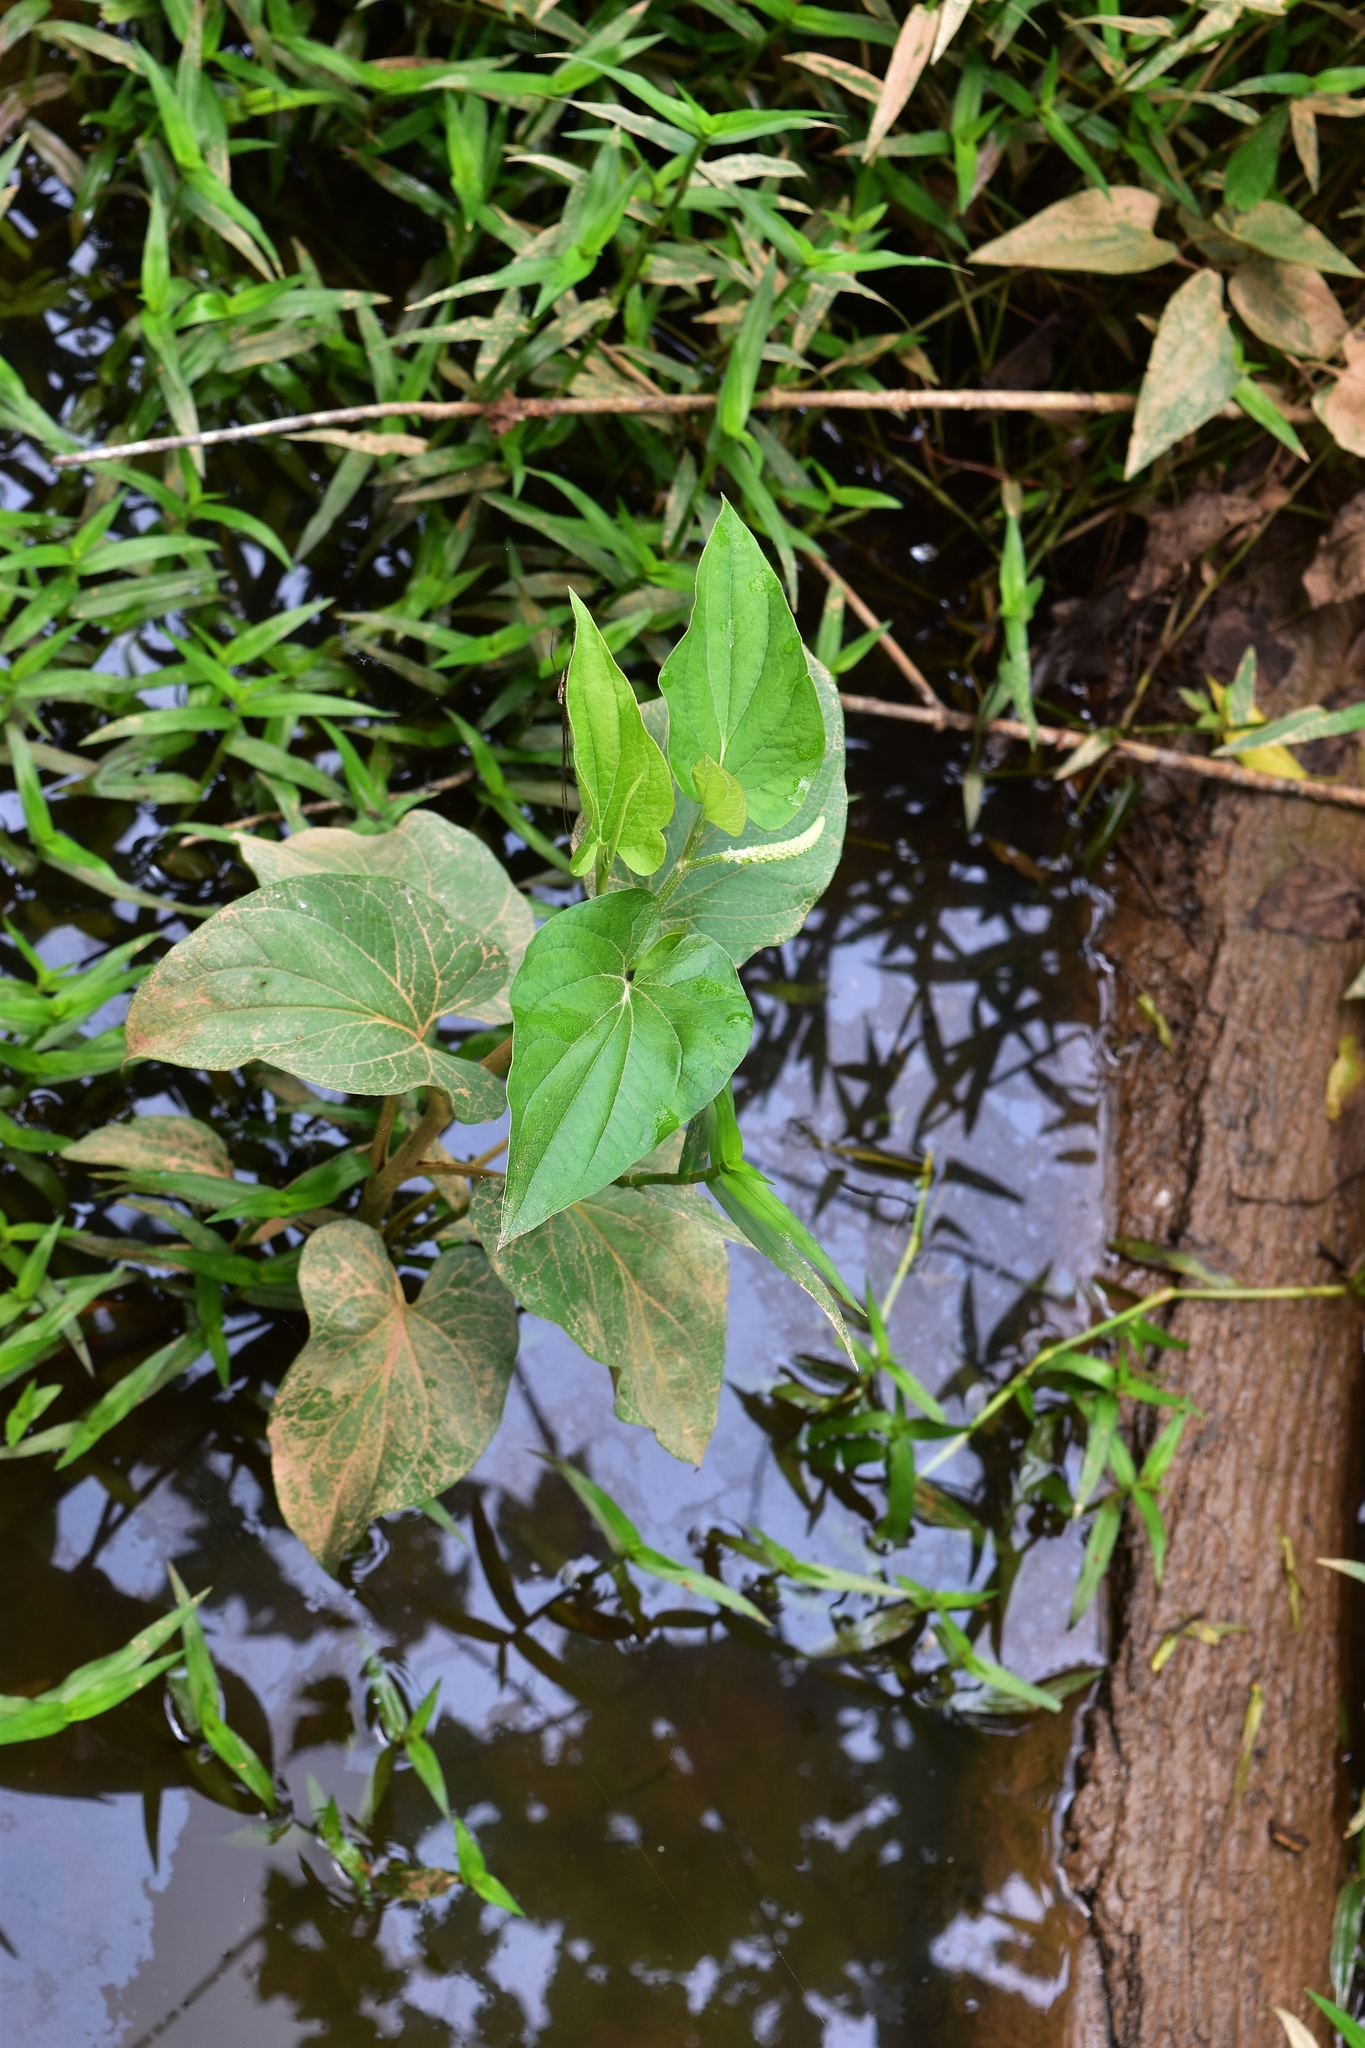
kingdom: Plantae
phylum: Tracheophyta
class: Magnoliopsida
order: Piperales
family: Saururaceae
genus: Saururus
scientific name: Saururus cernuus
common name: Lizard's-tail
